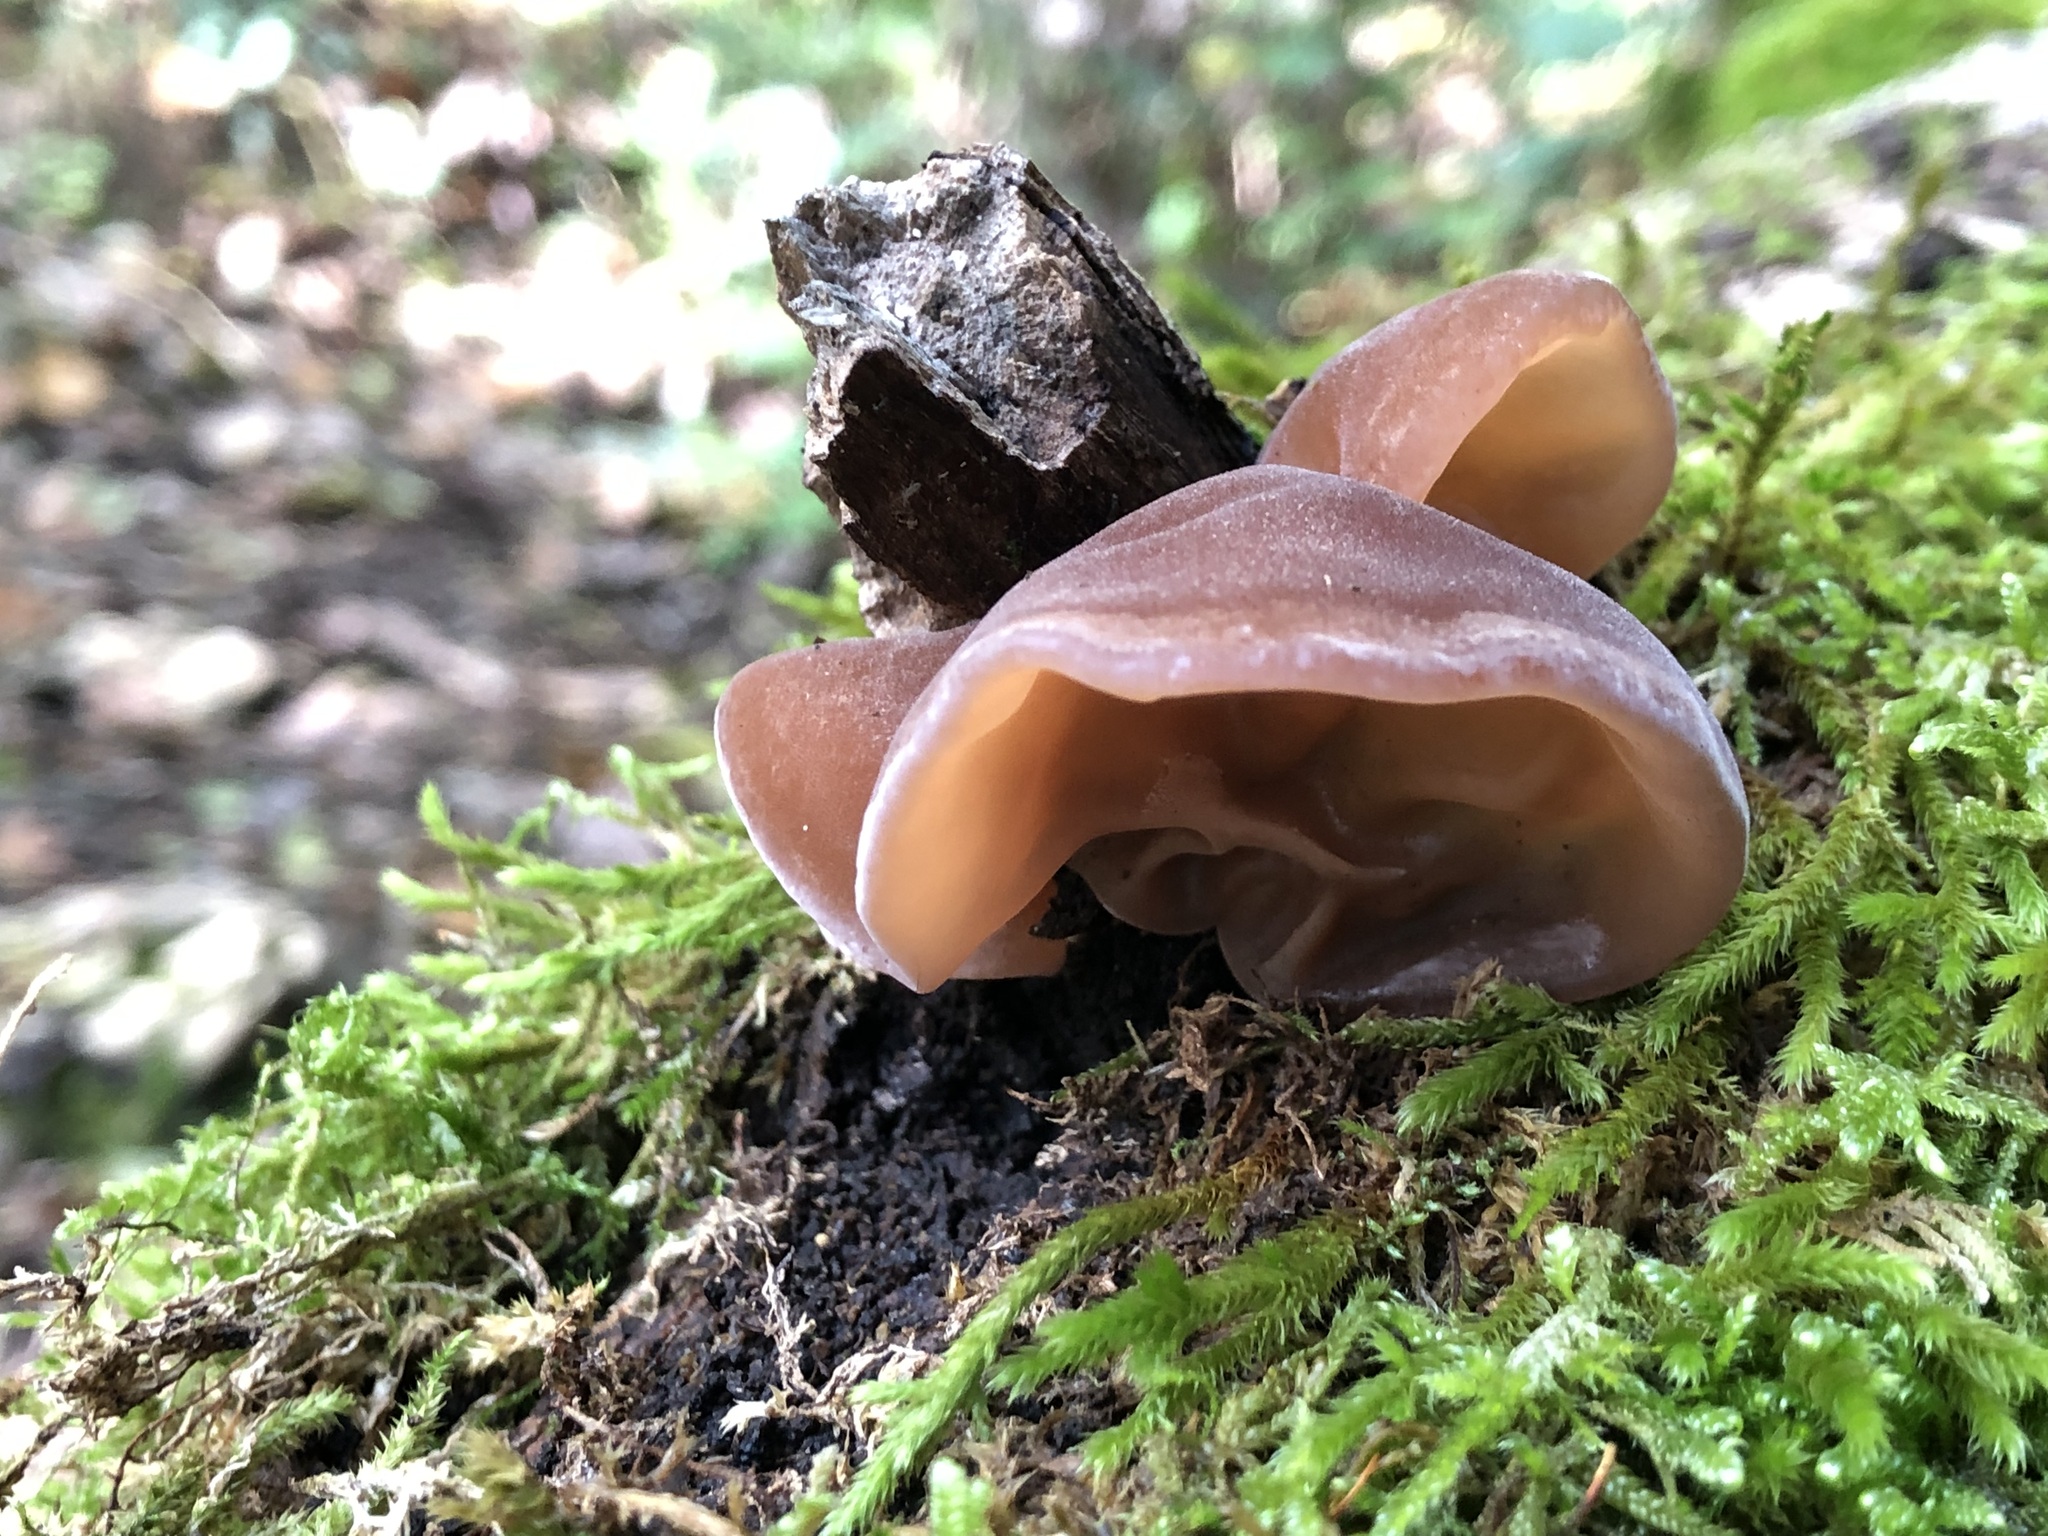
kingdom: Fungi
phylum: Basidiomycota
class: Agaricomycetes
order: Auriculariales
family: Auriculariaceae
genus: Auricularia
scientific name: Auricularia auricula-judae
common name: Jelly ear
